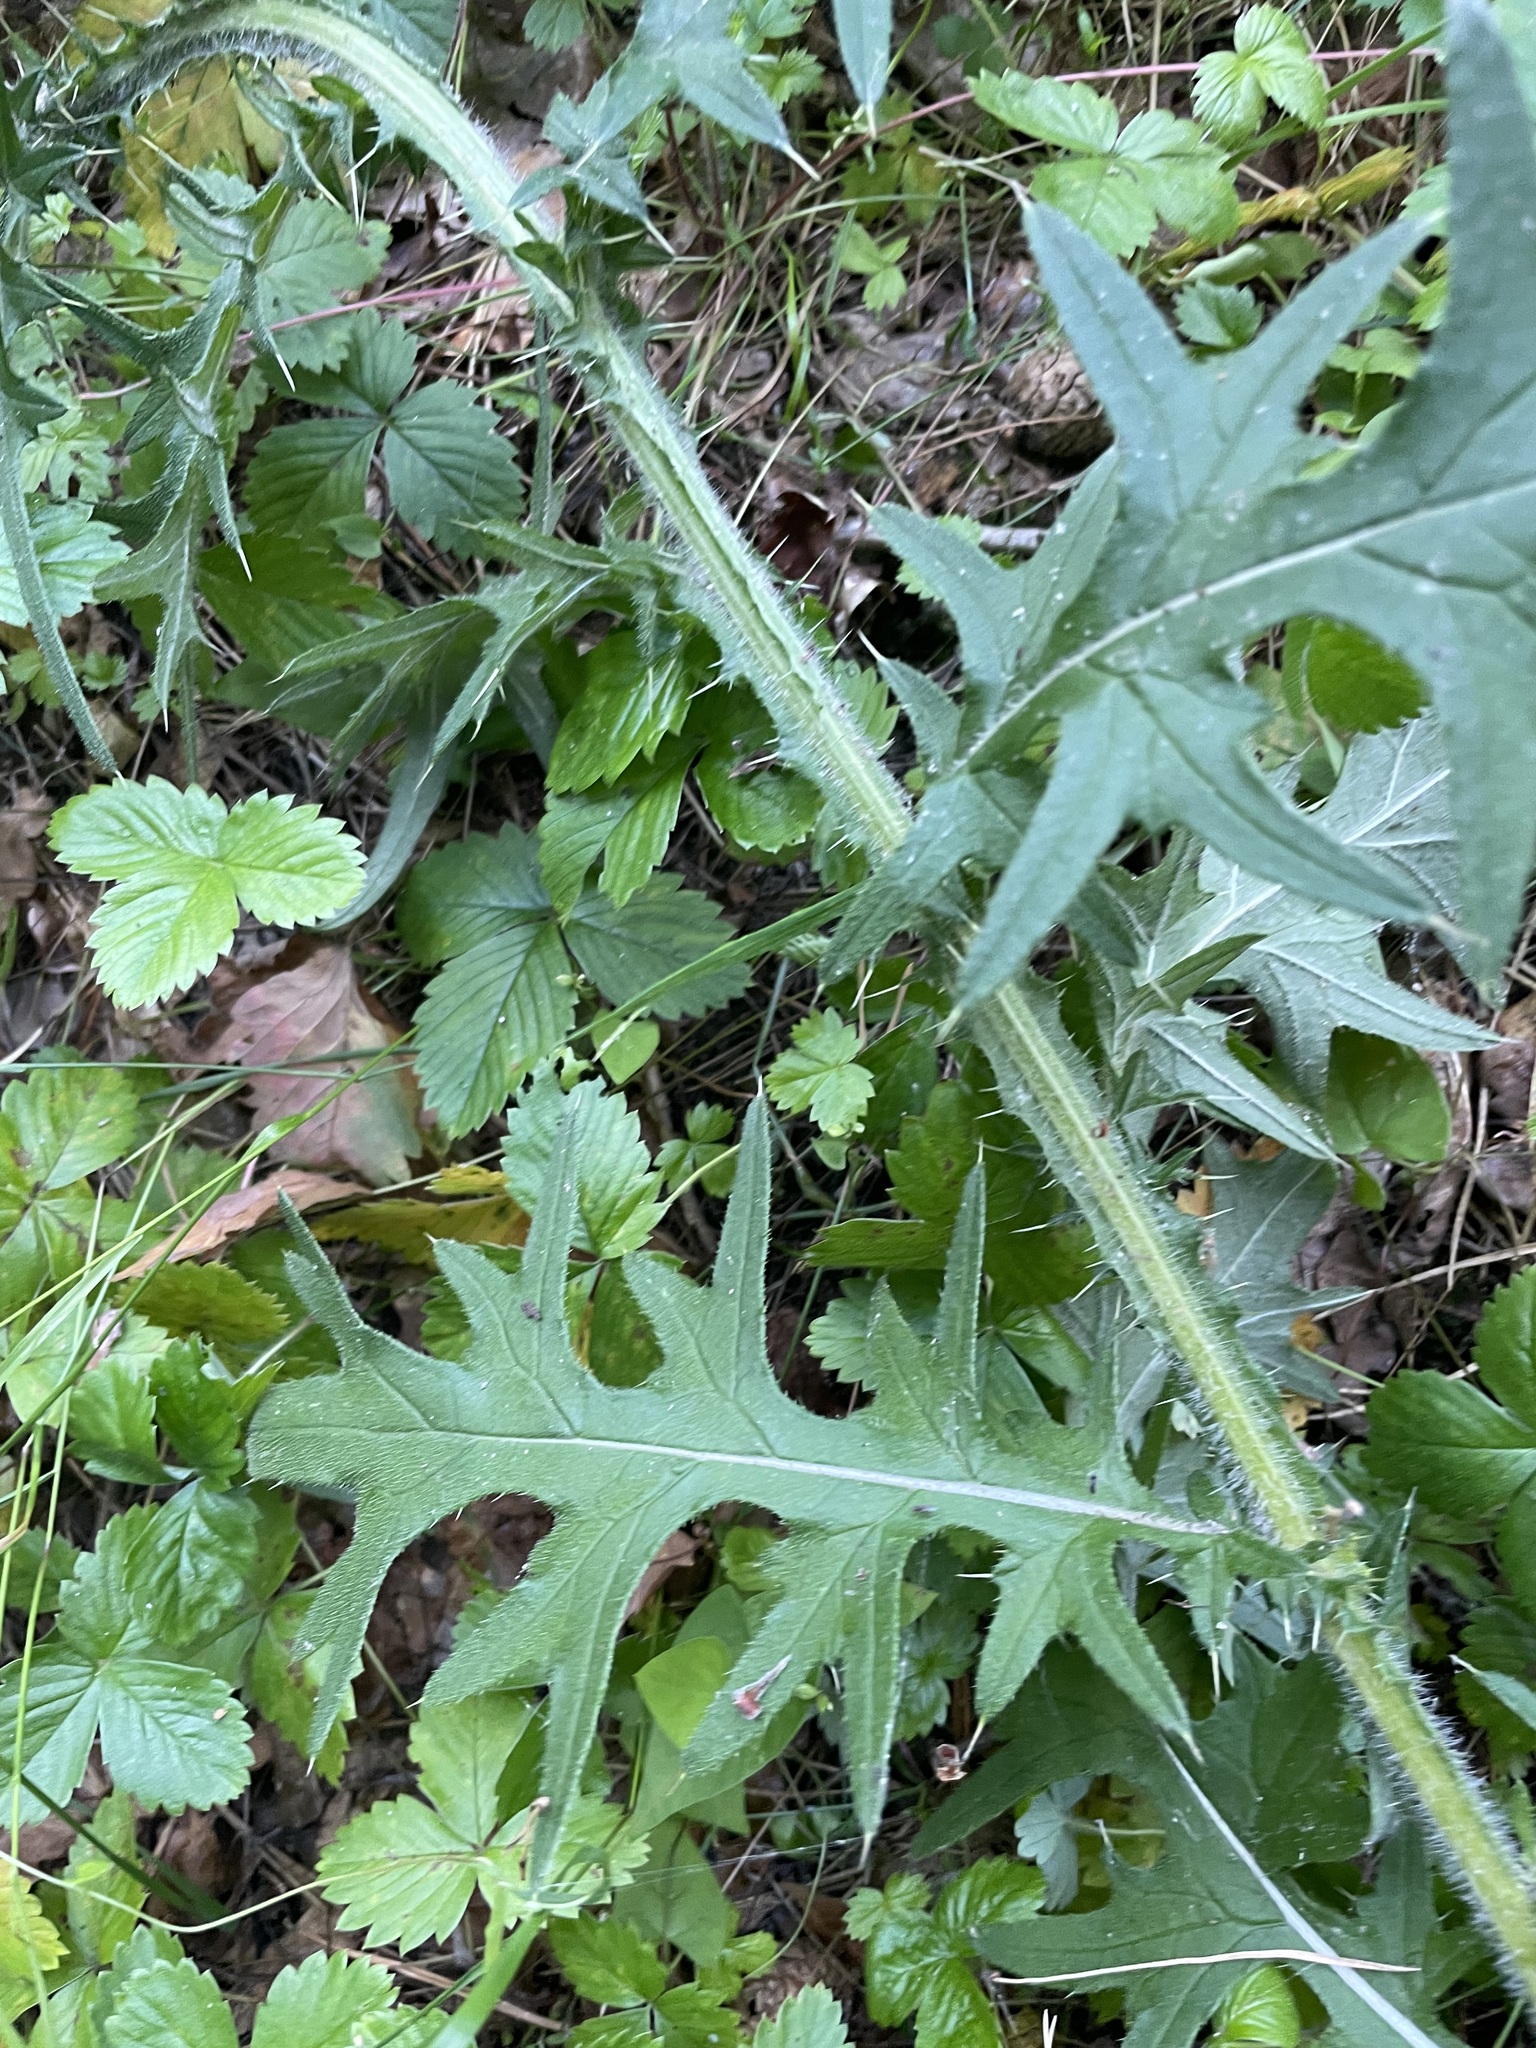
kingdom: Plantae
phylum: Tracheophyta
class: Magnoliopsida
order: Asterales
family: Asteraceae
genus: Cirsium
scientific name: Cirsium vulgare
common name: Bull thistle
